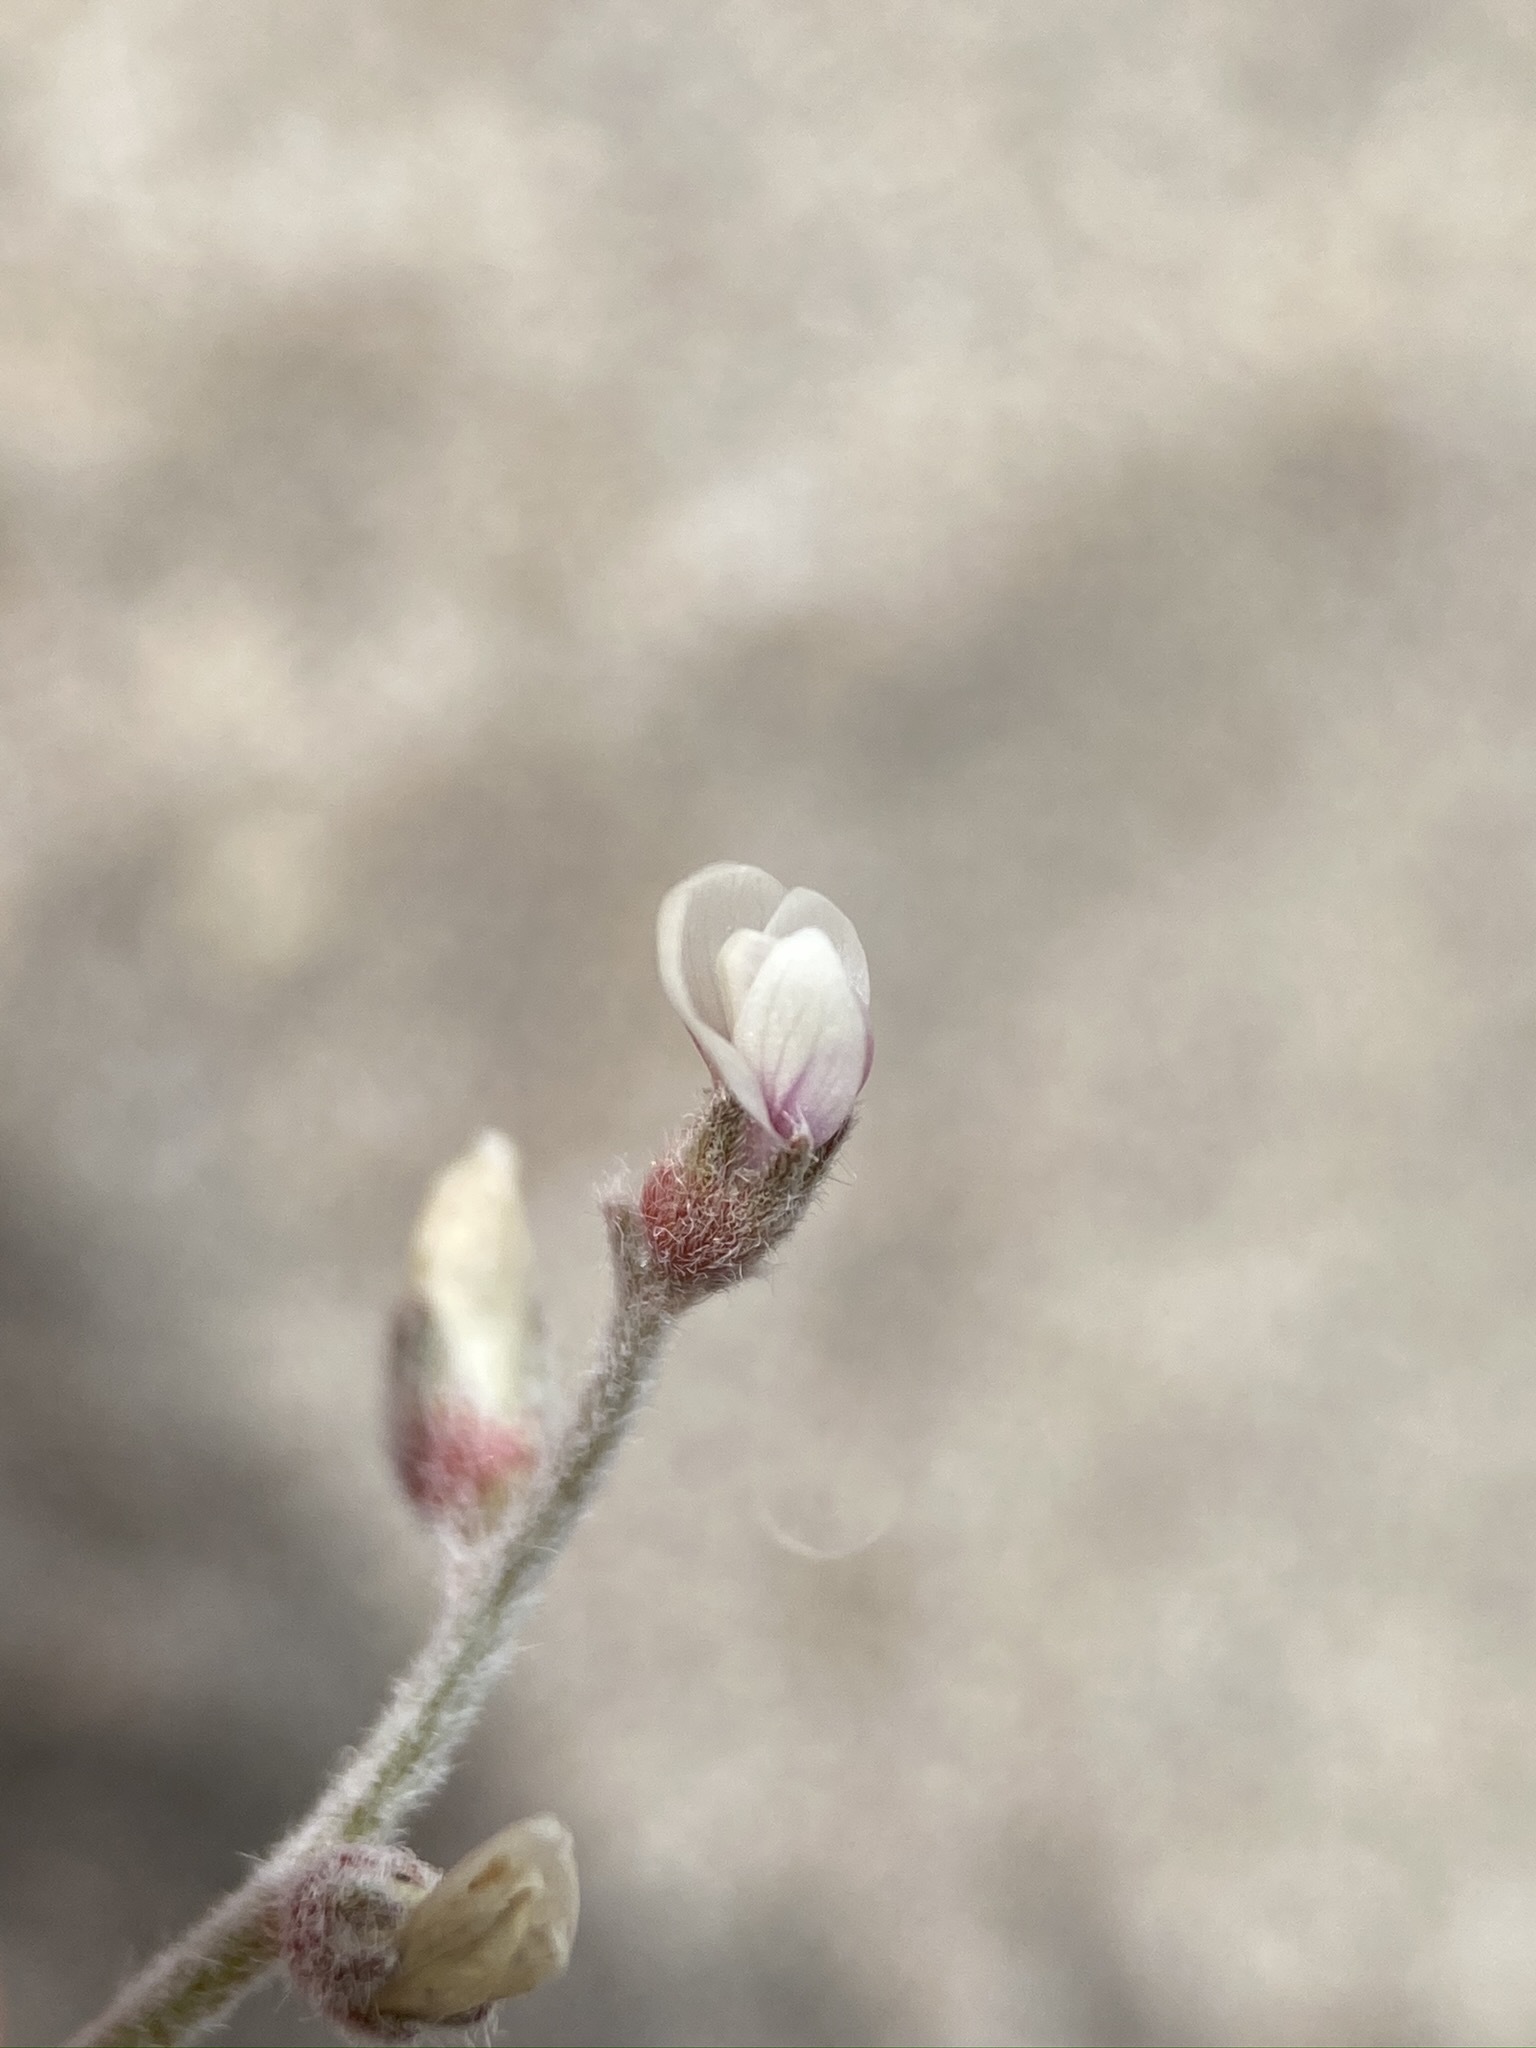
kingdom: Plantae
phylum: Tracheophyta
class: Magnoliopsida
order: Fabales
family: Fabaceae
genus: Astragalus
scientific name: Astragalus geyeri
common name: Geyer's milkvetch
